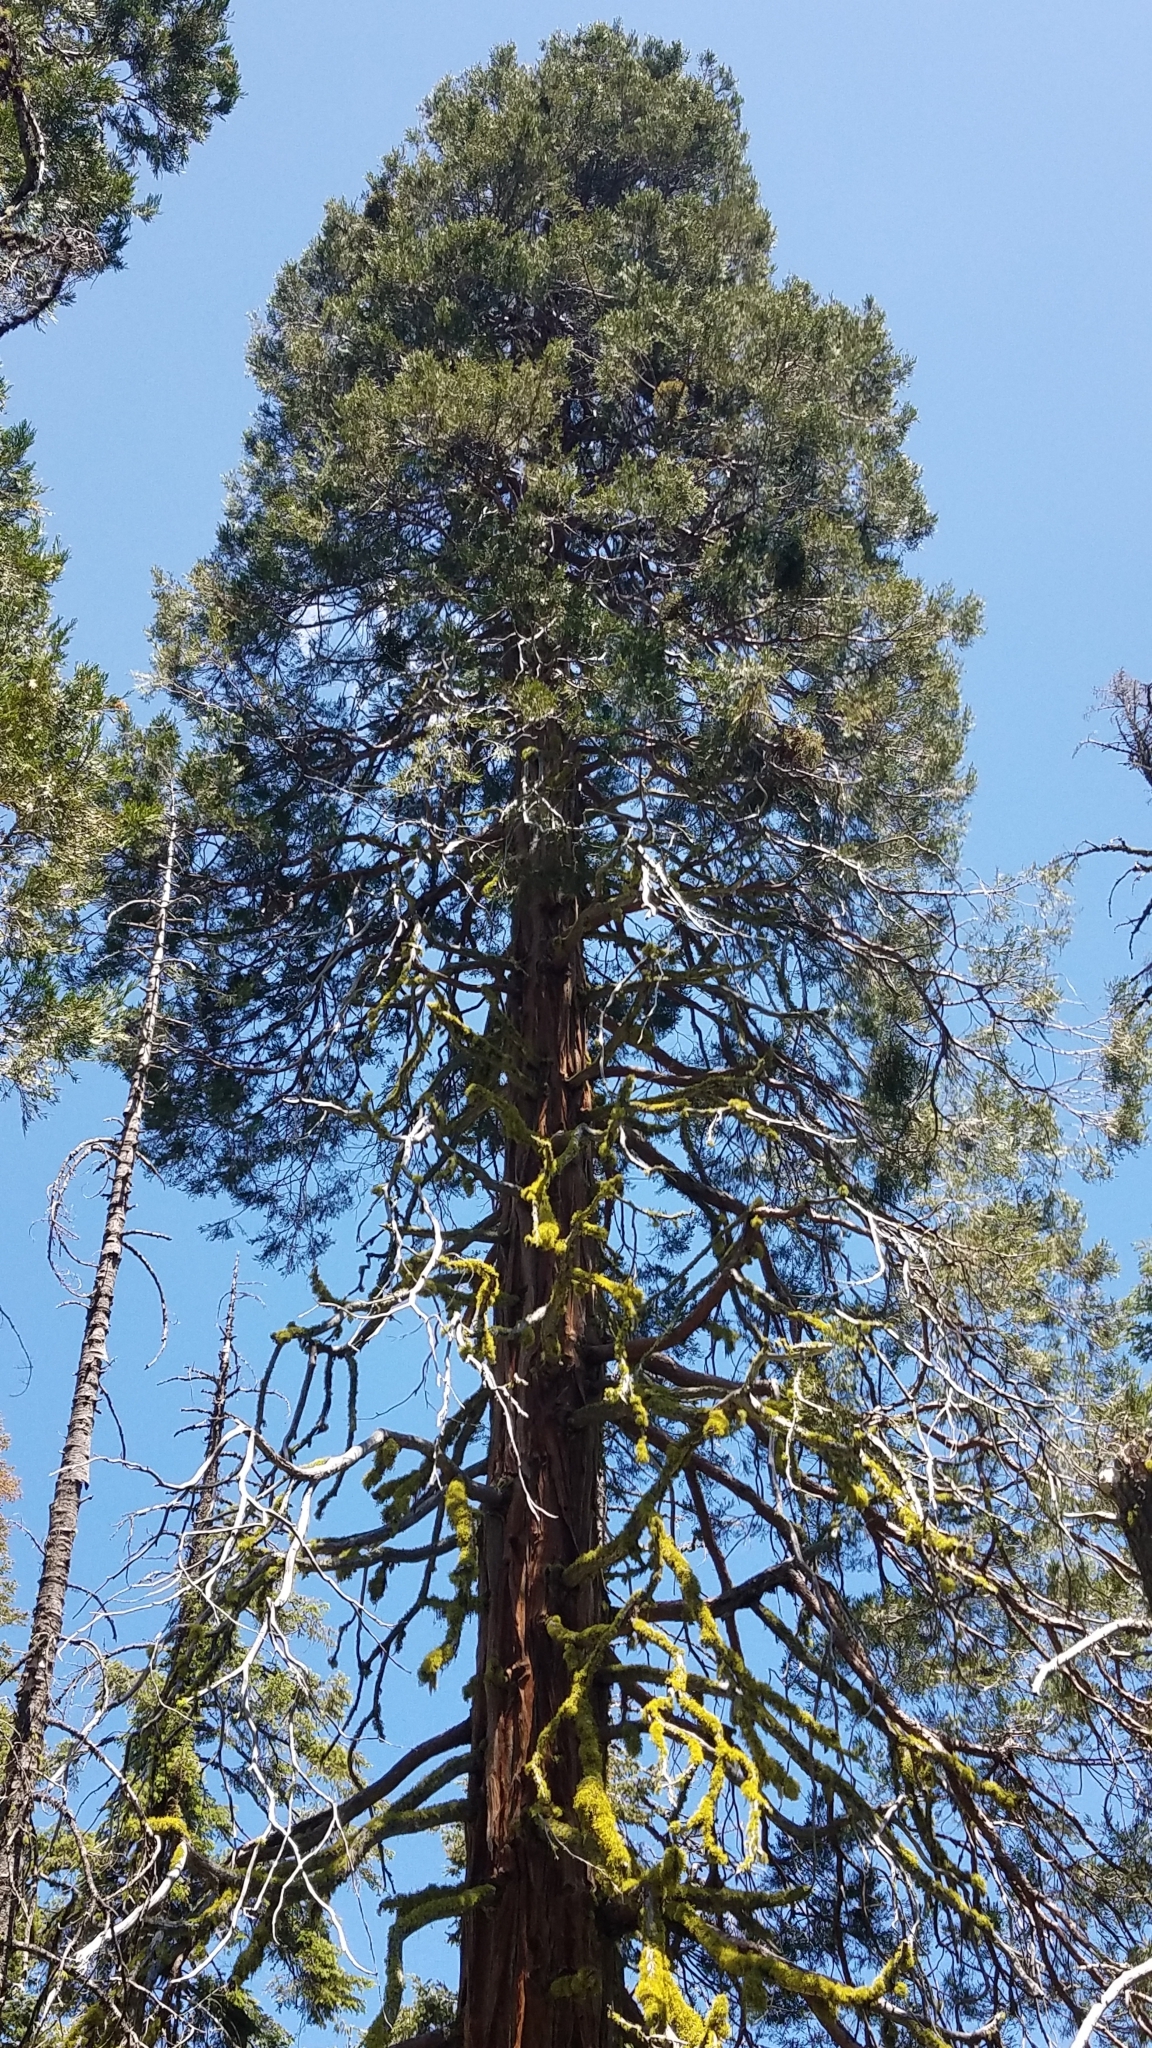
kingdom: Plantae
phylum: Tracheophyta
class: Pinopsida
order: Pinales
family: Cupressaceae
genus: Calocedrus
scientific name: Calocedrus decurrens
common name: Californian incense-cedar
